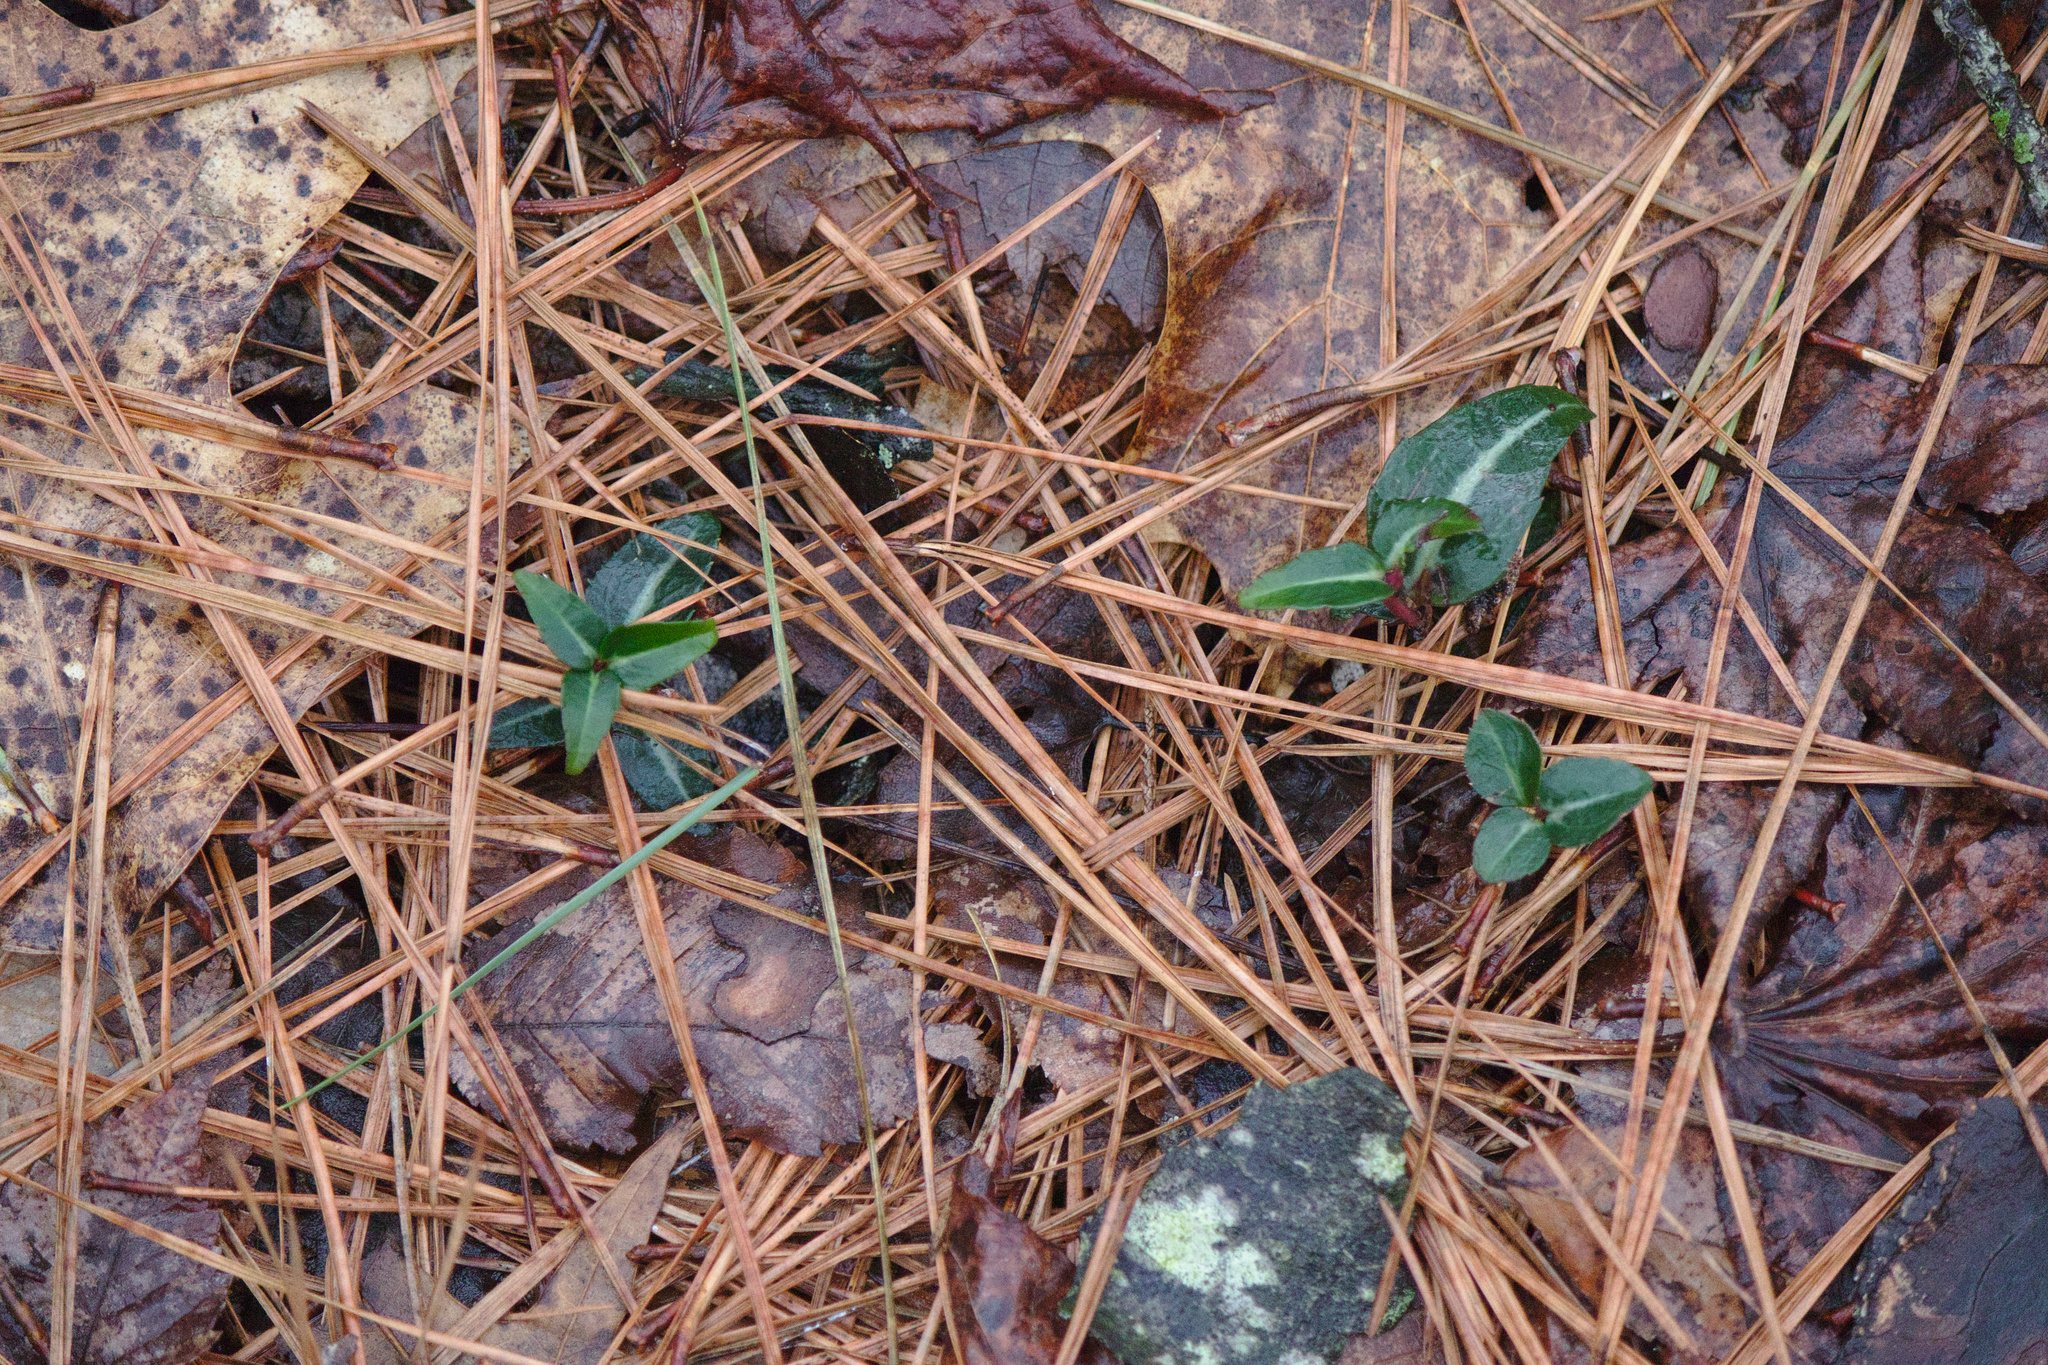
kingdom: Plantae
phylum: Tracheophyta
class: Magnoliopsida
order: Ericales
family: Ericaceae
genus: Chimaphila
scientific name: Chimaphila maculata
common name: Spotted pipsissewa
